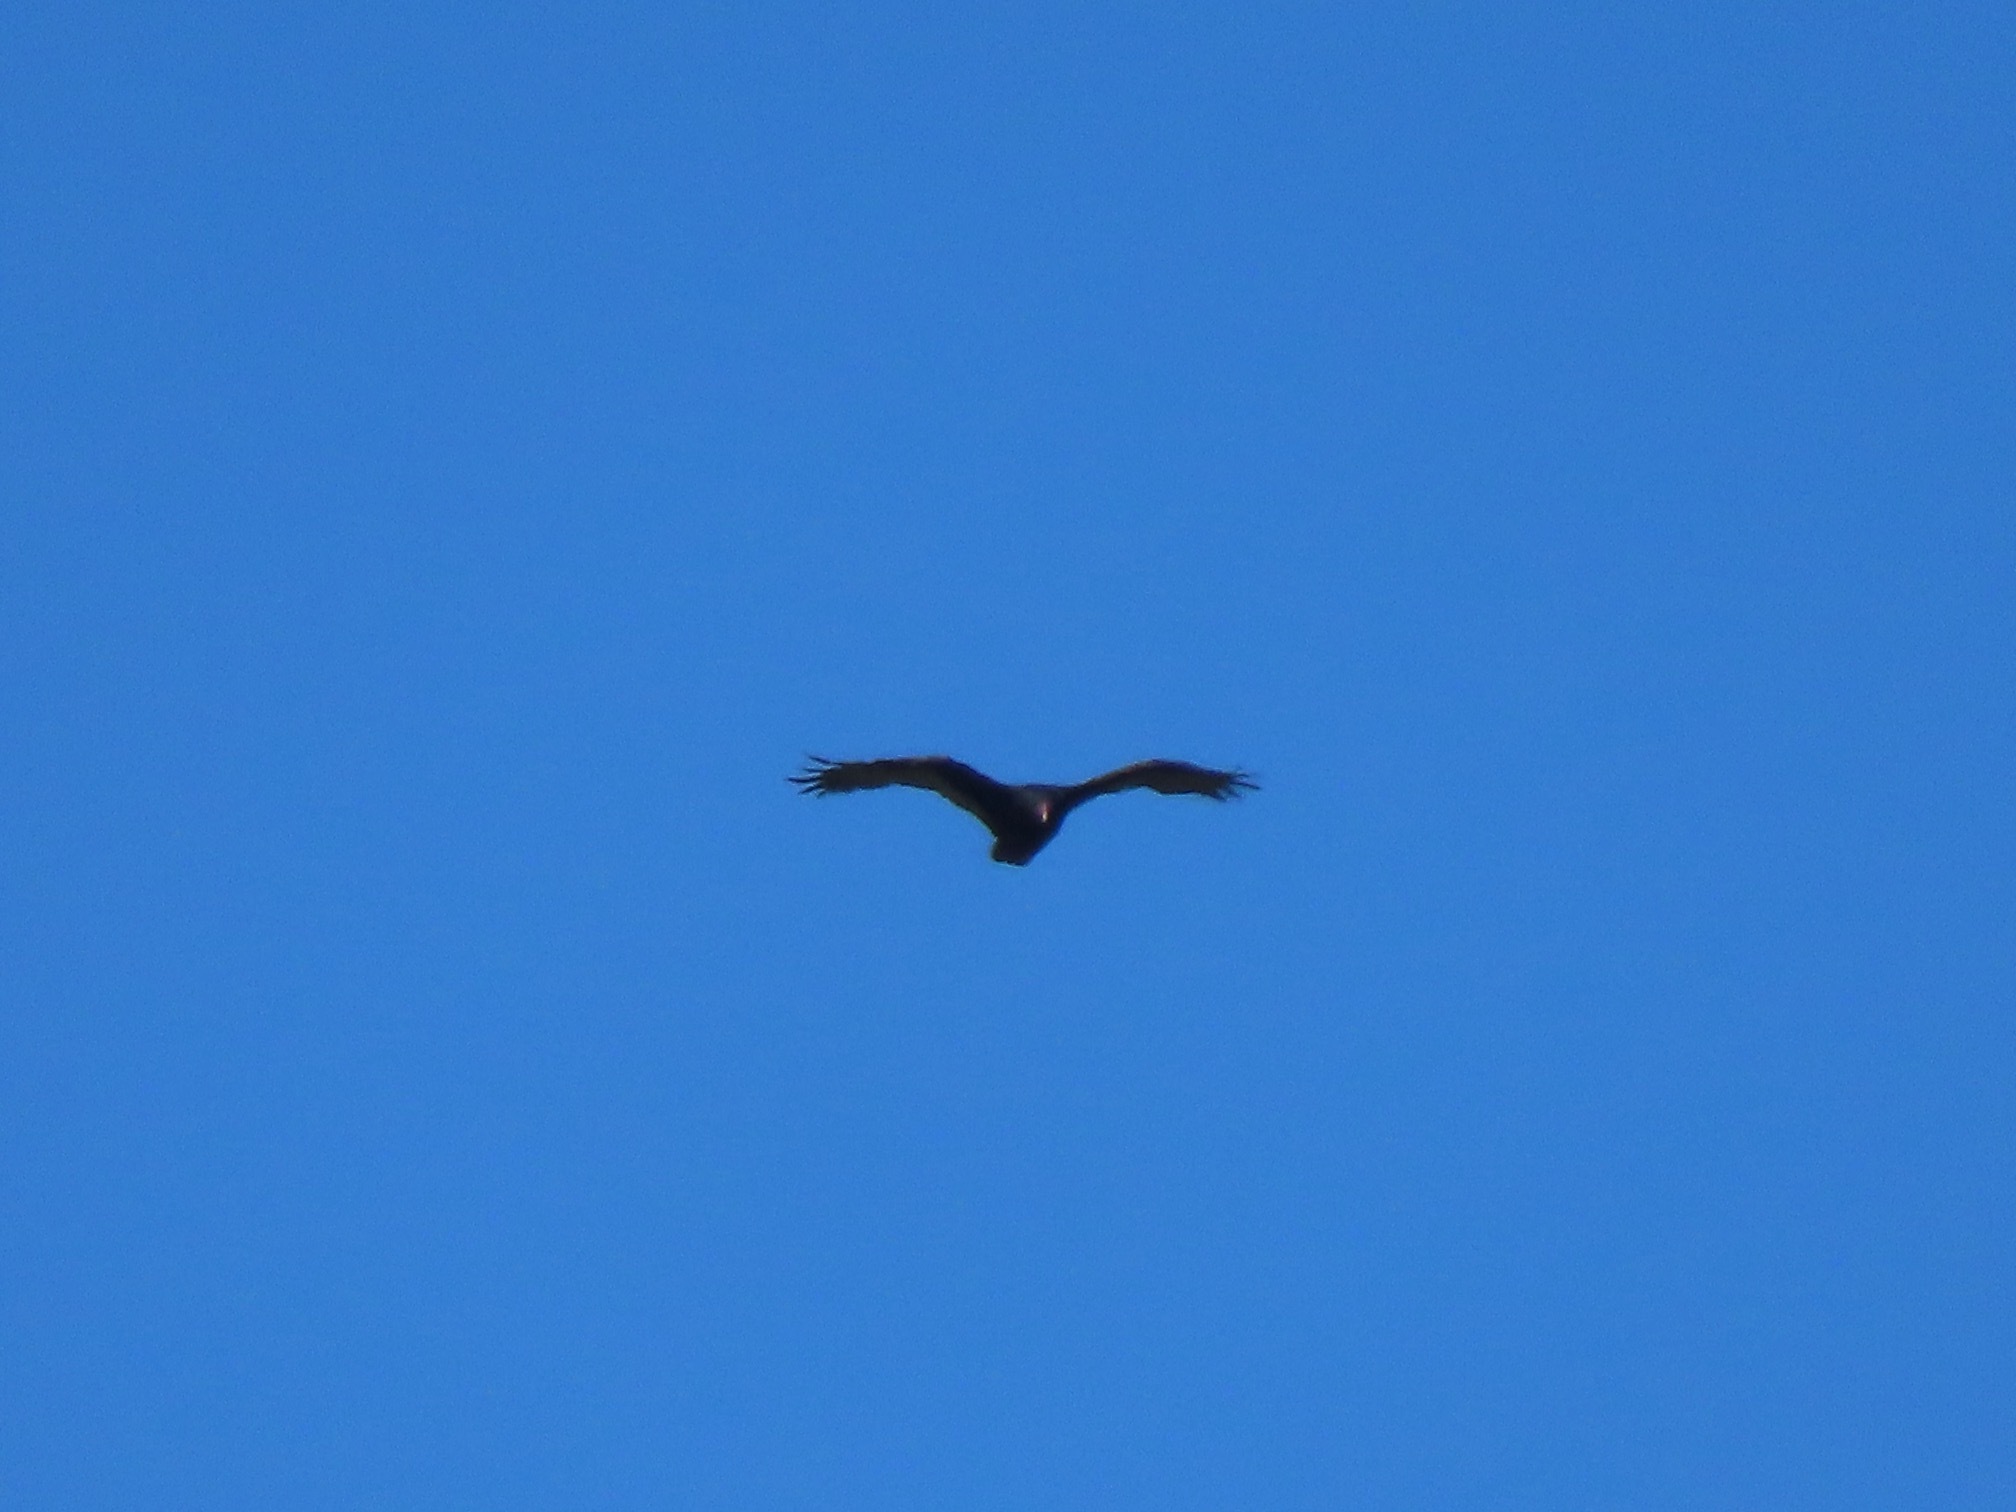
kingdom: Animalia
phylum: Chordata
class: Aves
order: Accipitriformes
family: Cathartidae
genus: Cathartes
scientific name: Cathartes aura
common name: Turkey vulture
